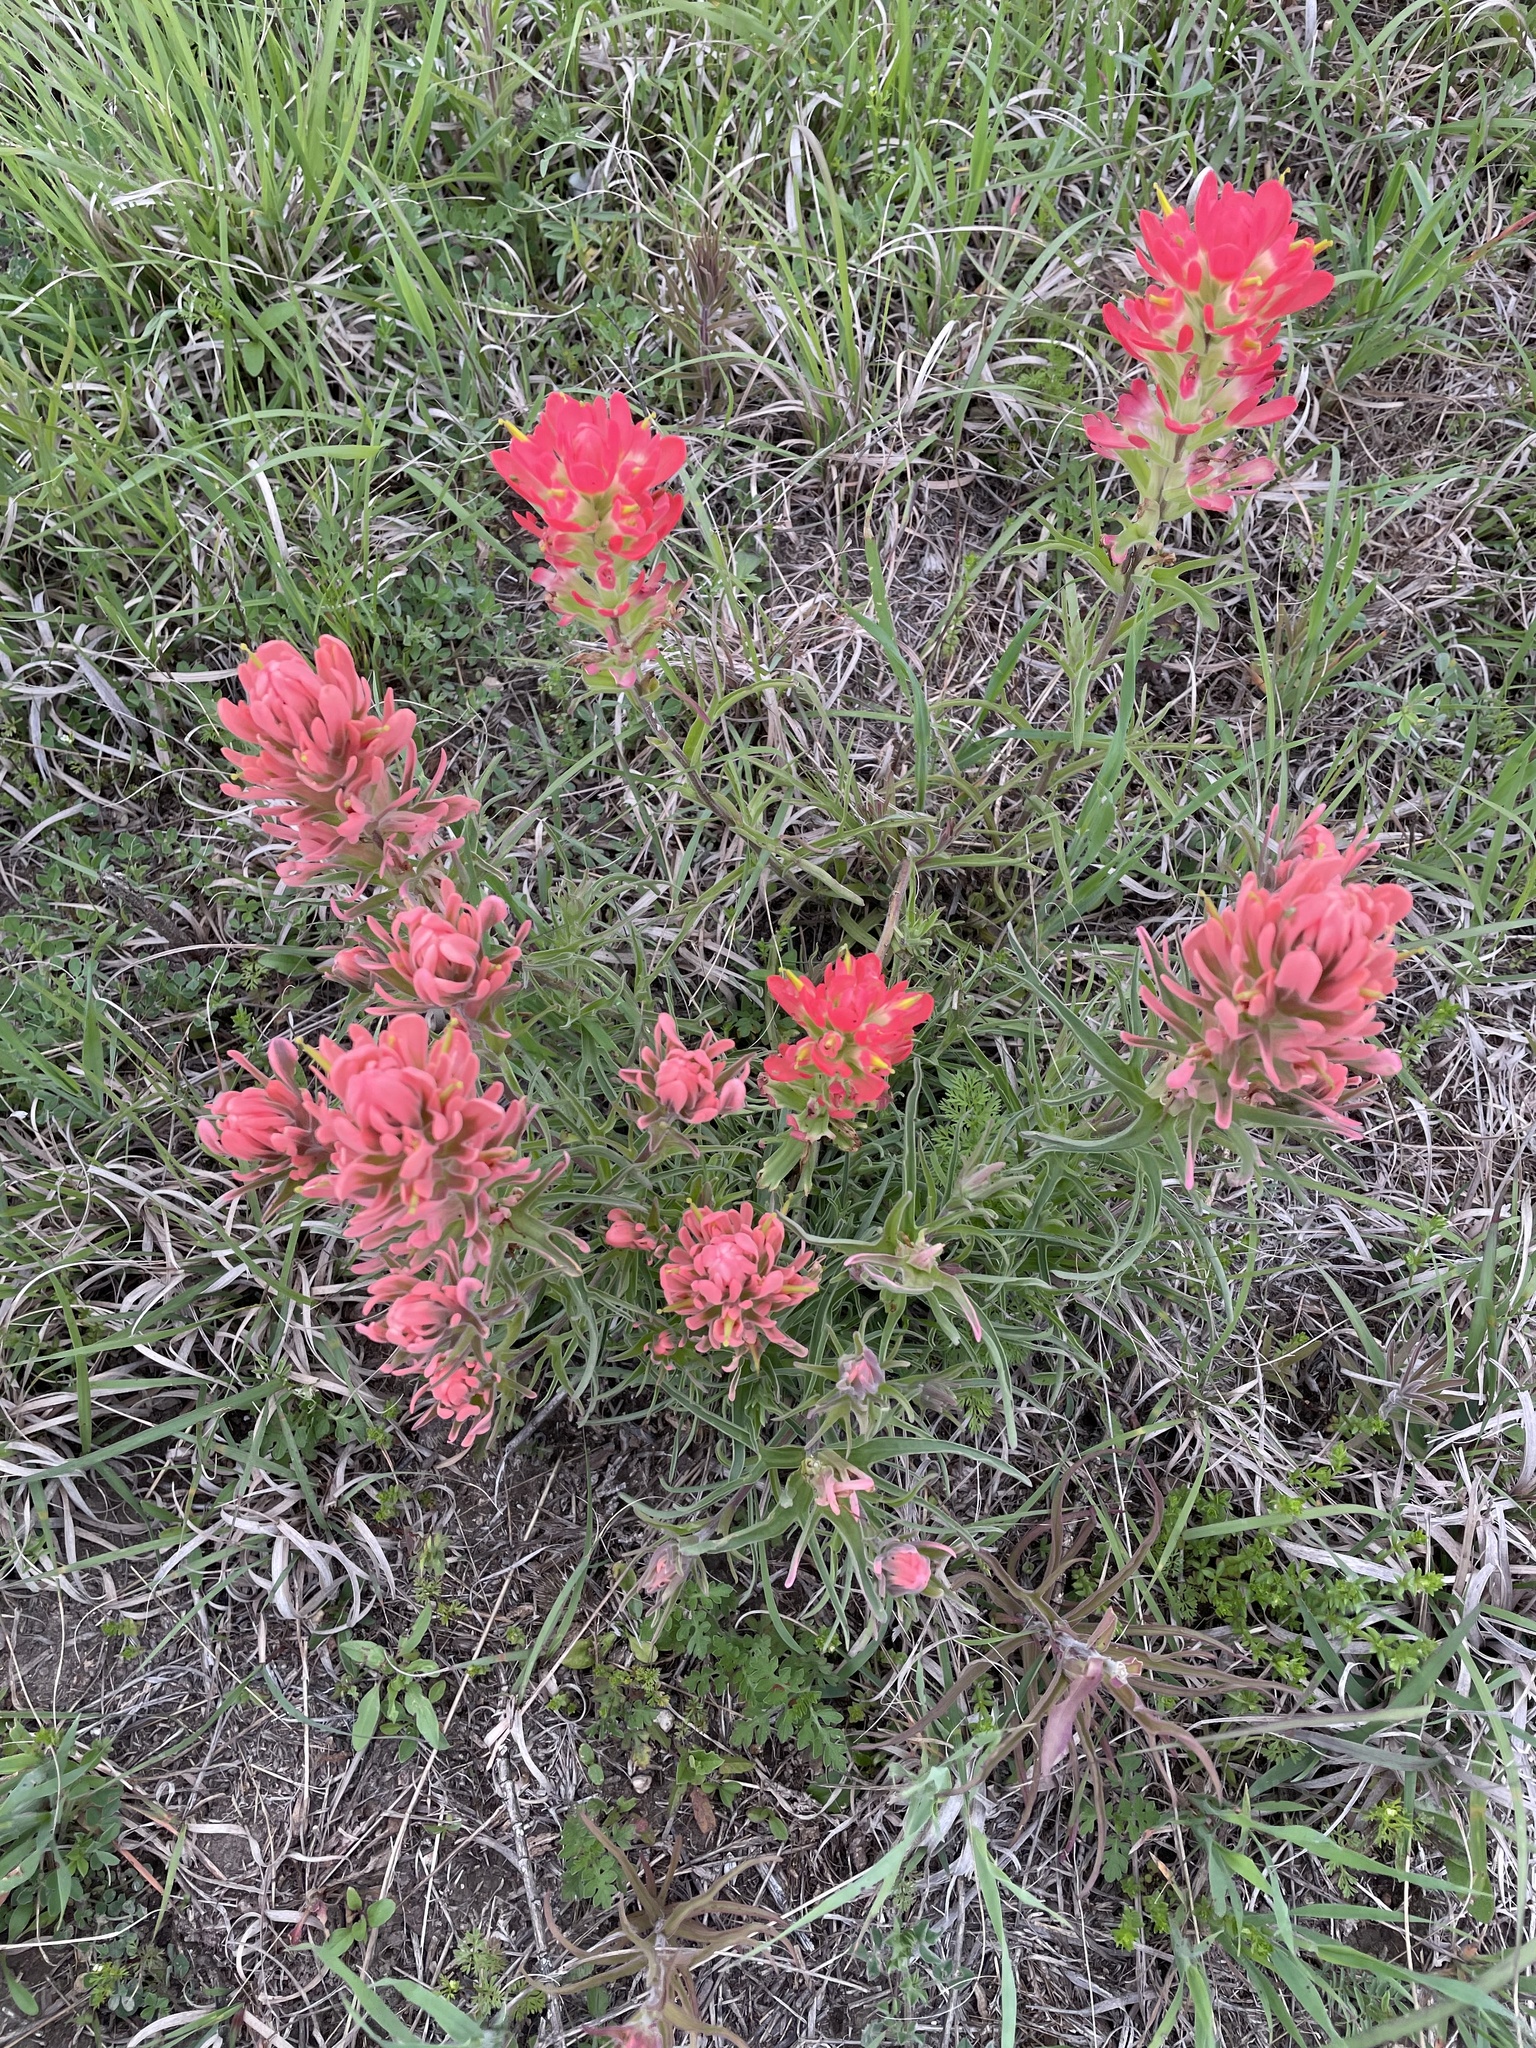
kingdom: Plantae
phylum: Tracheophyta
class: Magnoliopsida
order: Lamiales
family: Orobanchaceae
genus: Castilleja
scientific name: Castilleja
